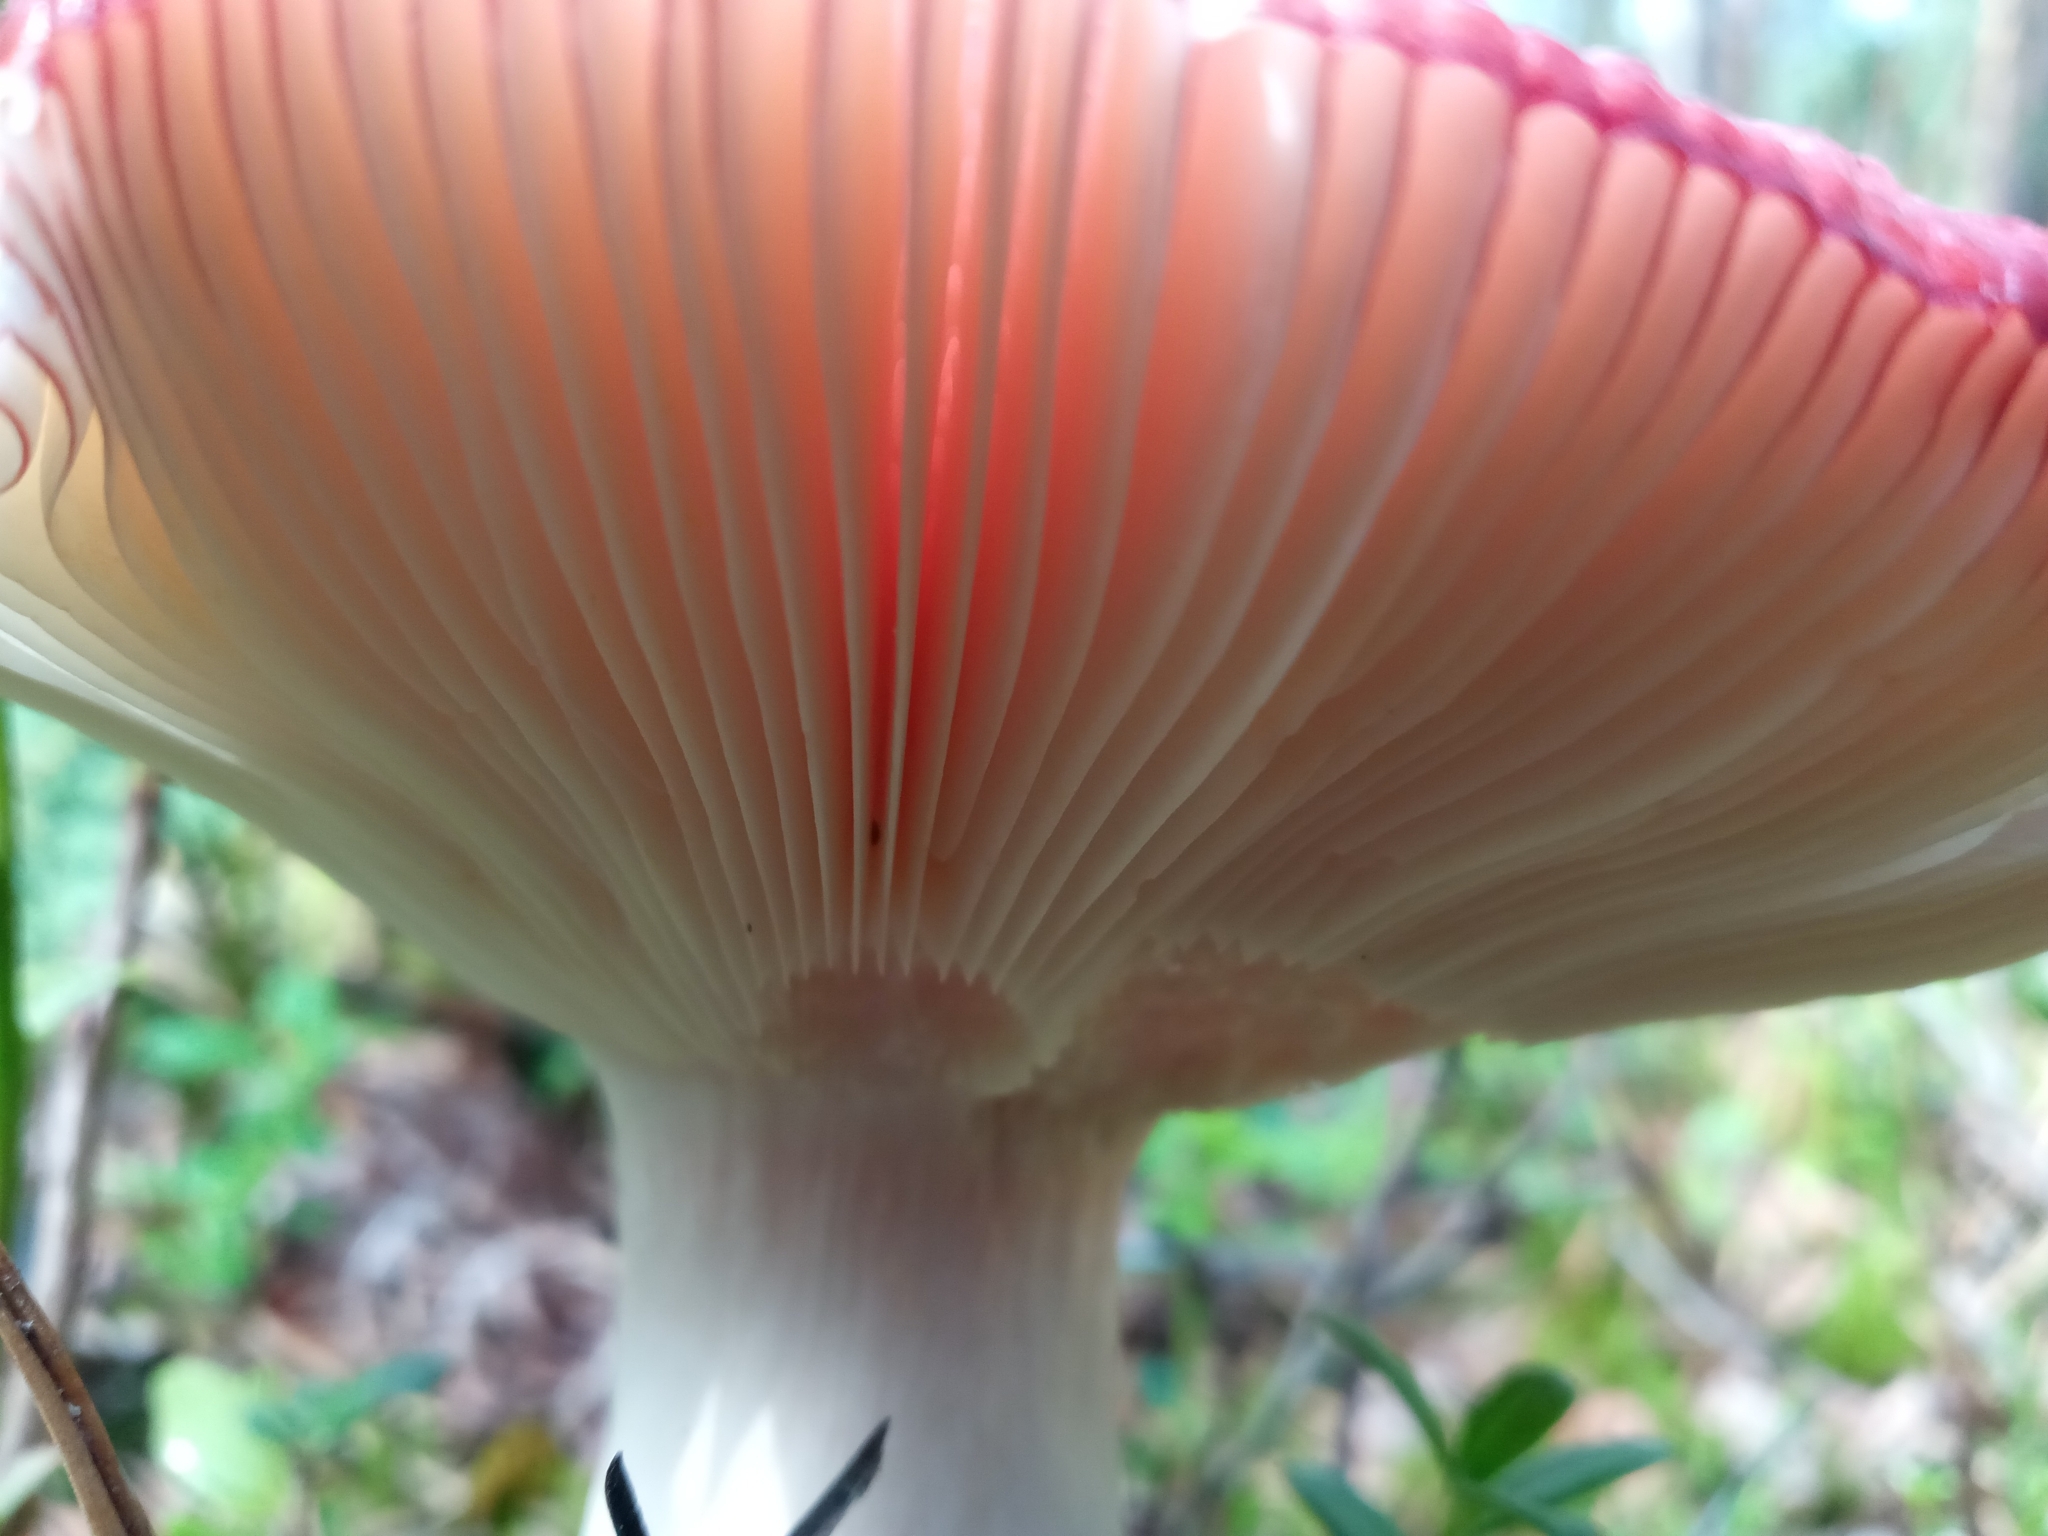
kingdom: Fungi
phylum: Basidiomycota
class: Agaricomycetes
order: Russulales
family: Russulaceae
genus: Russula
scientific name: Russula sanguinea
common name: Bloody brittlegill
